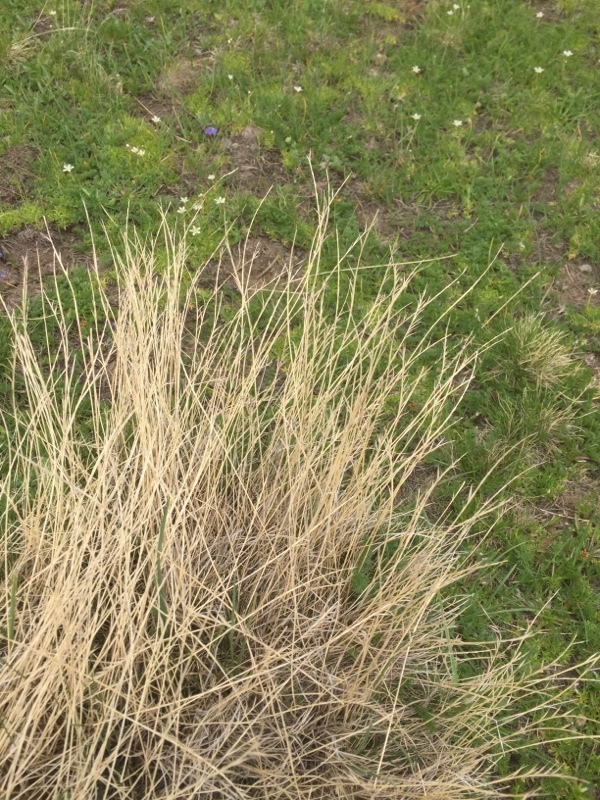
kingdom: Plantae
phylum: Tracheophyta
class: Liliopsida
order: Poales
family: Poaceae
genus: Nardus
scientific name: Nardus stricta
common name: Mat-grass
